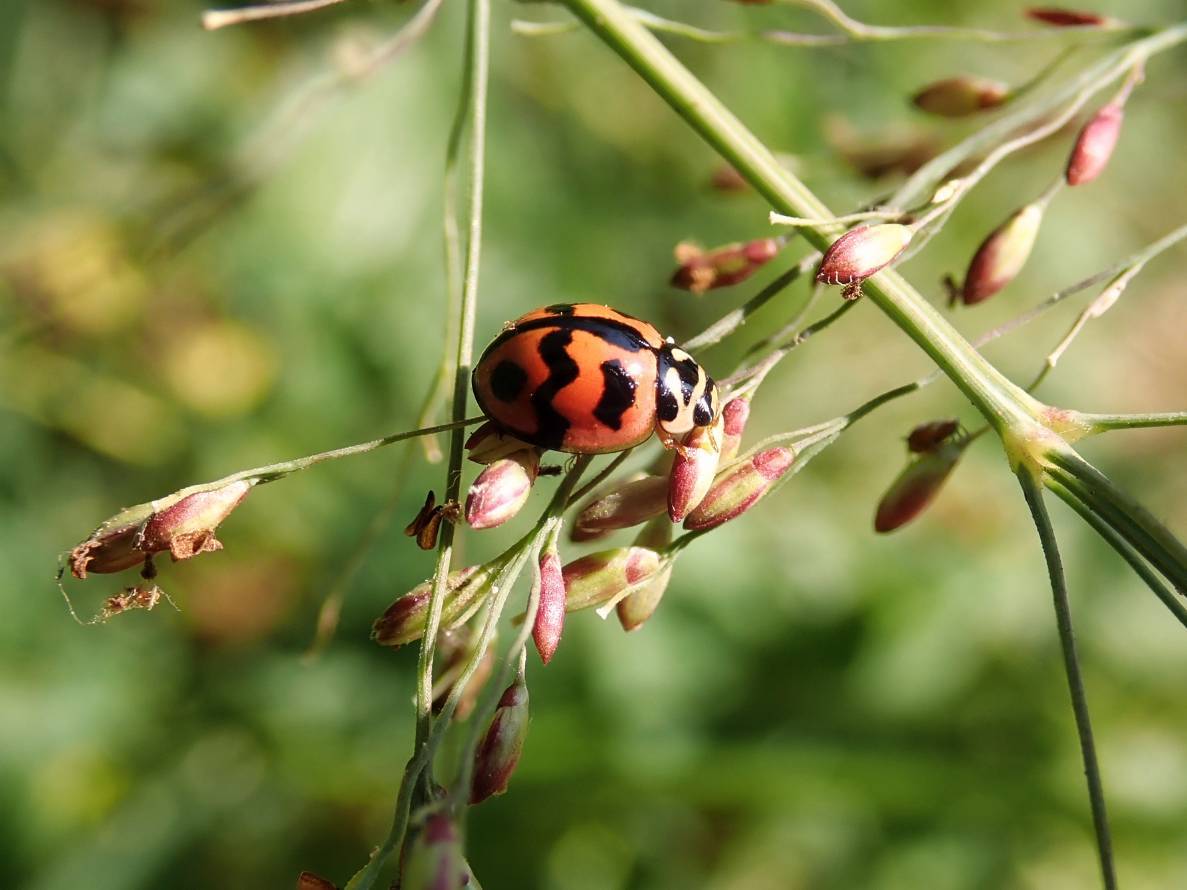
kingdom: Animalia
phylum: Arthropoda
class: Insecta
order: Coleoptera
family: Coccinellidae
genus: Cheilomenes
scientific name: Cheilomenes sexmaculata
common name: Ladybird beetle
